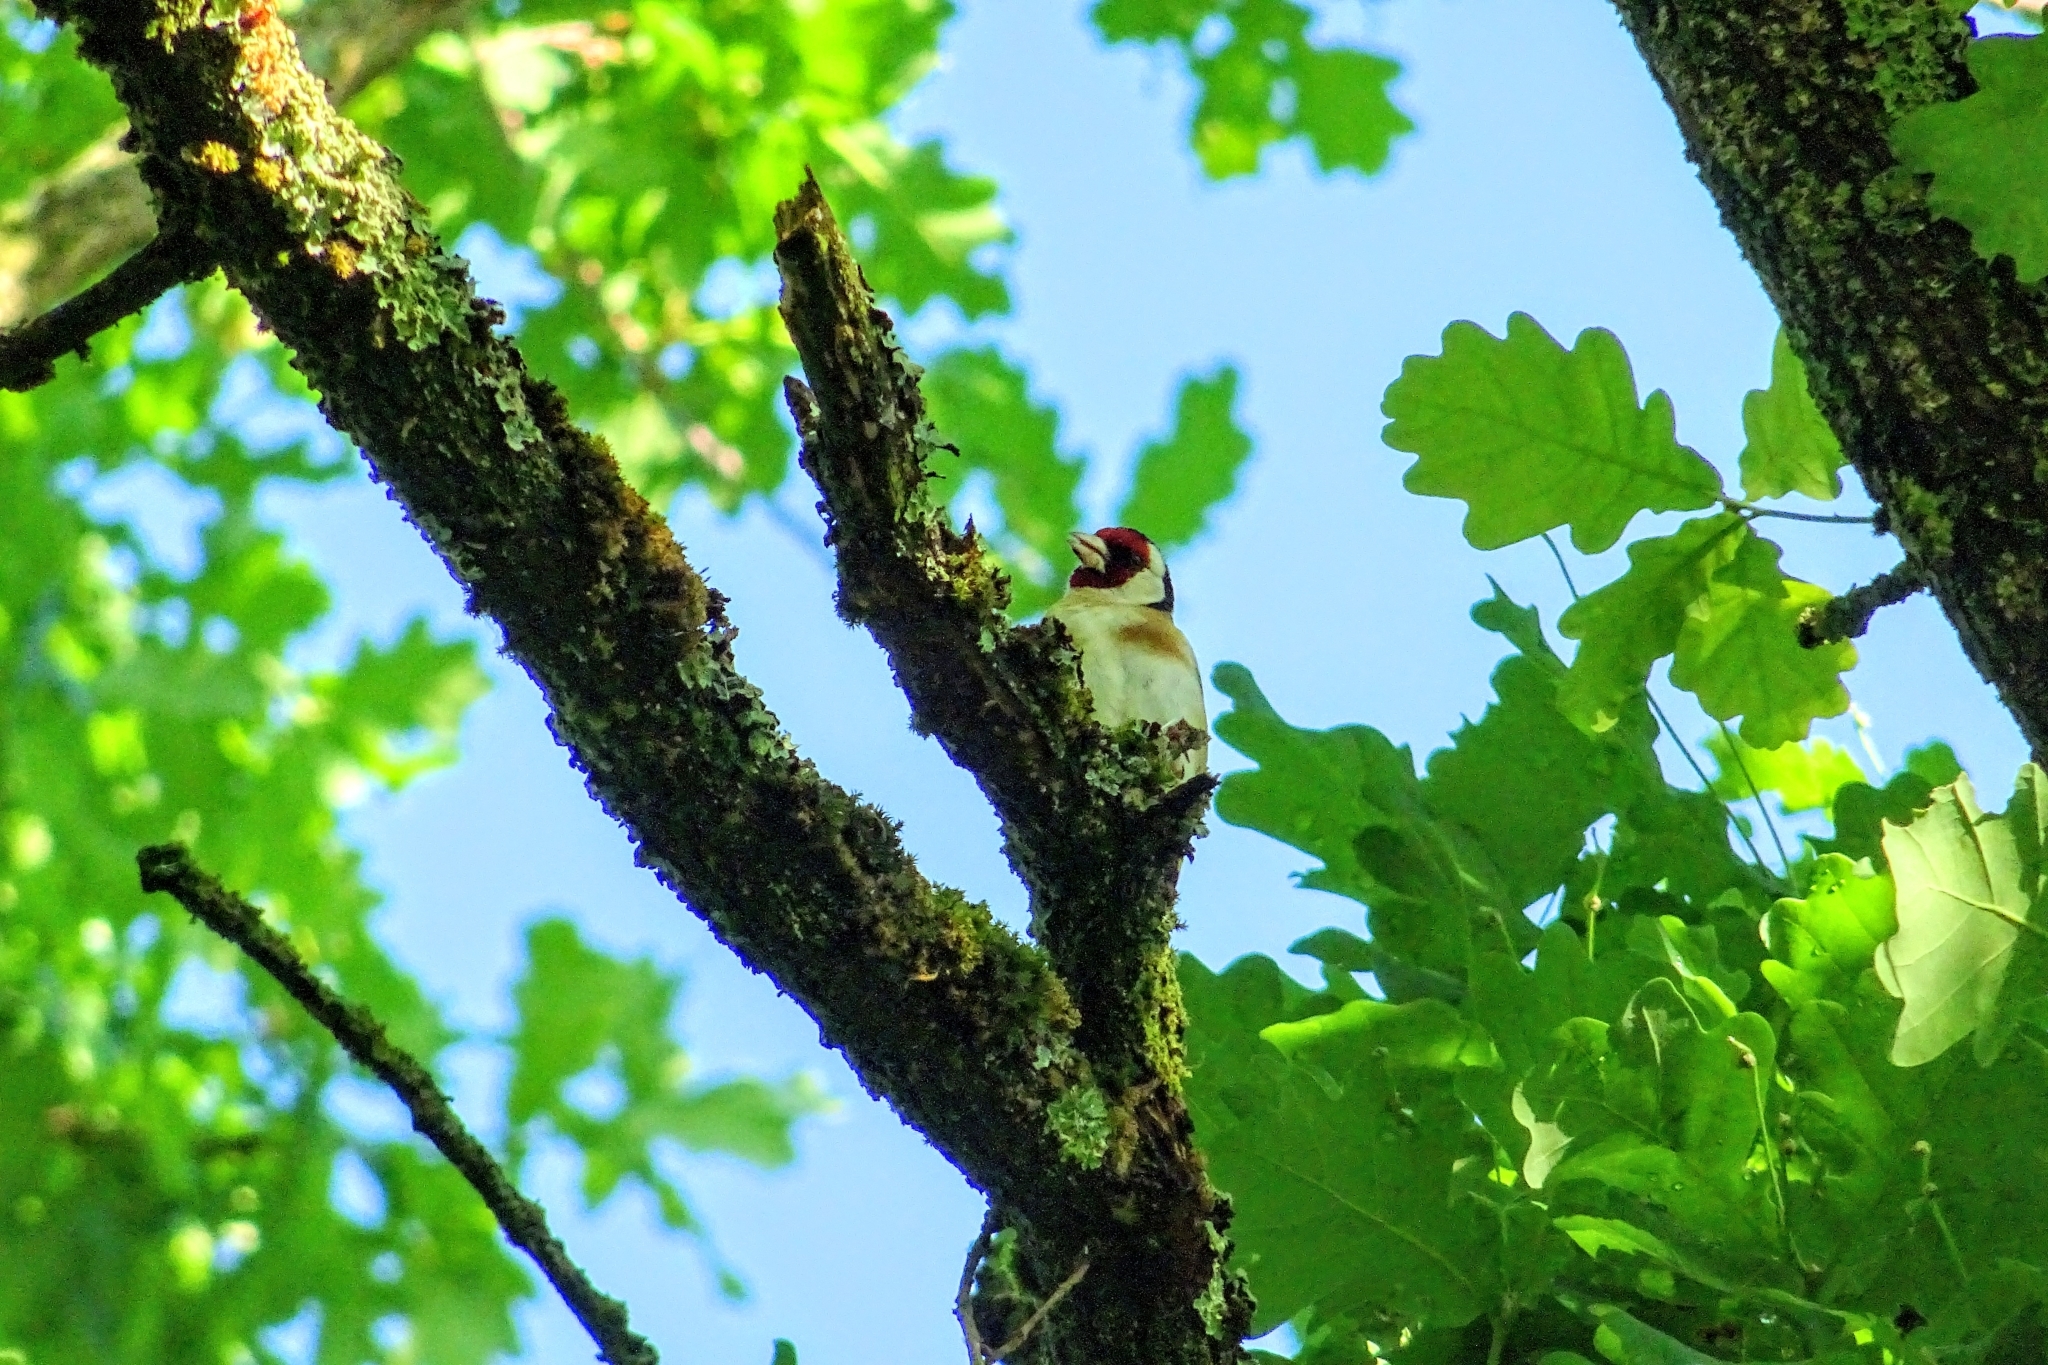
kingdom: Animalia
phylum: Chordata
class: Aves
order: Passeriformes
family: Fringillidae
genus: Carduelis
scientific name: Carduelis carduelis
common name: European goldfinch
